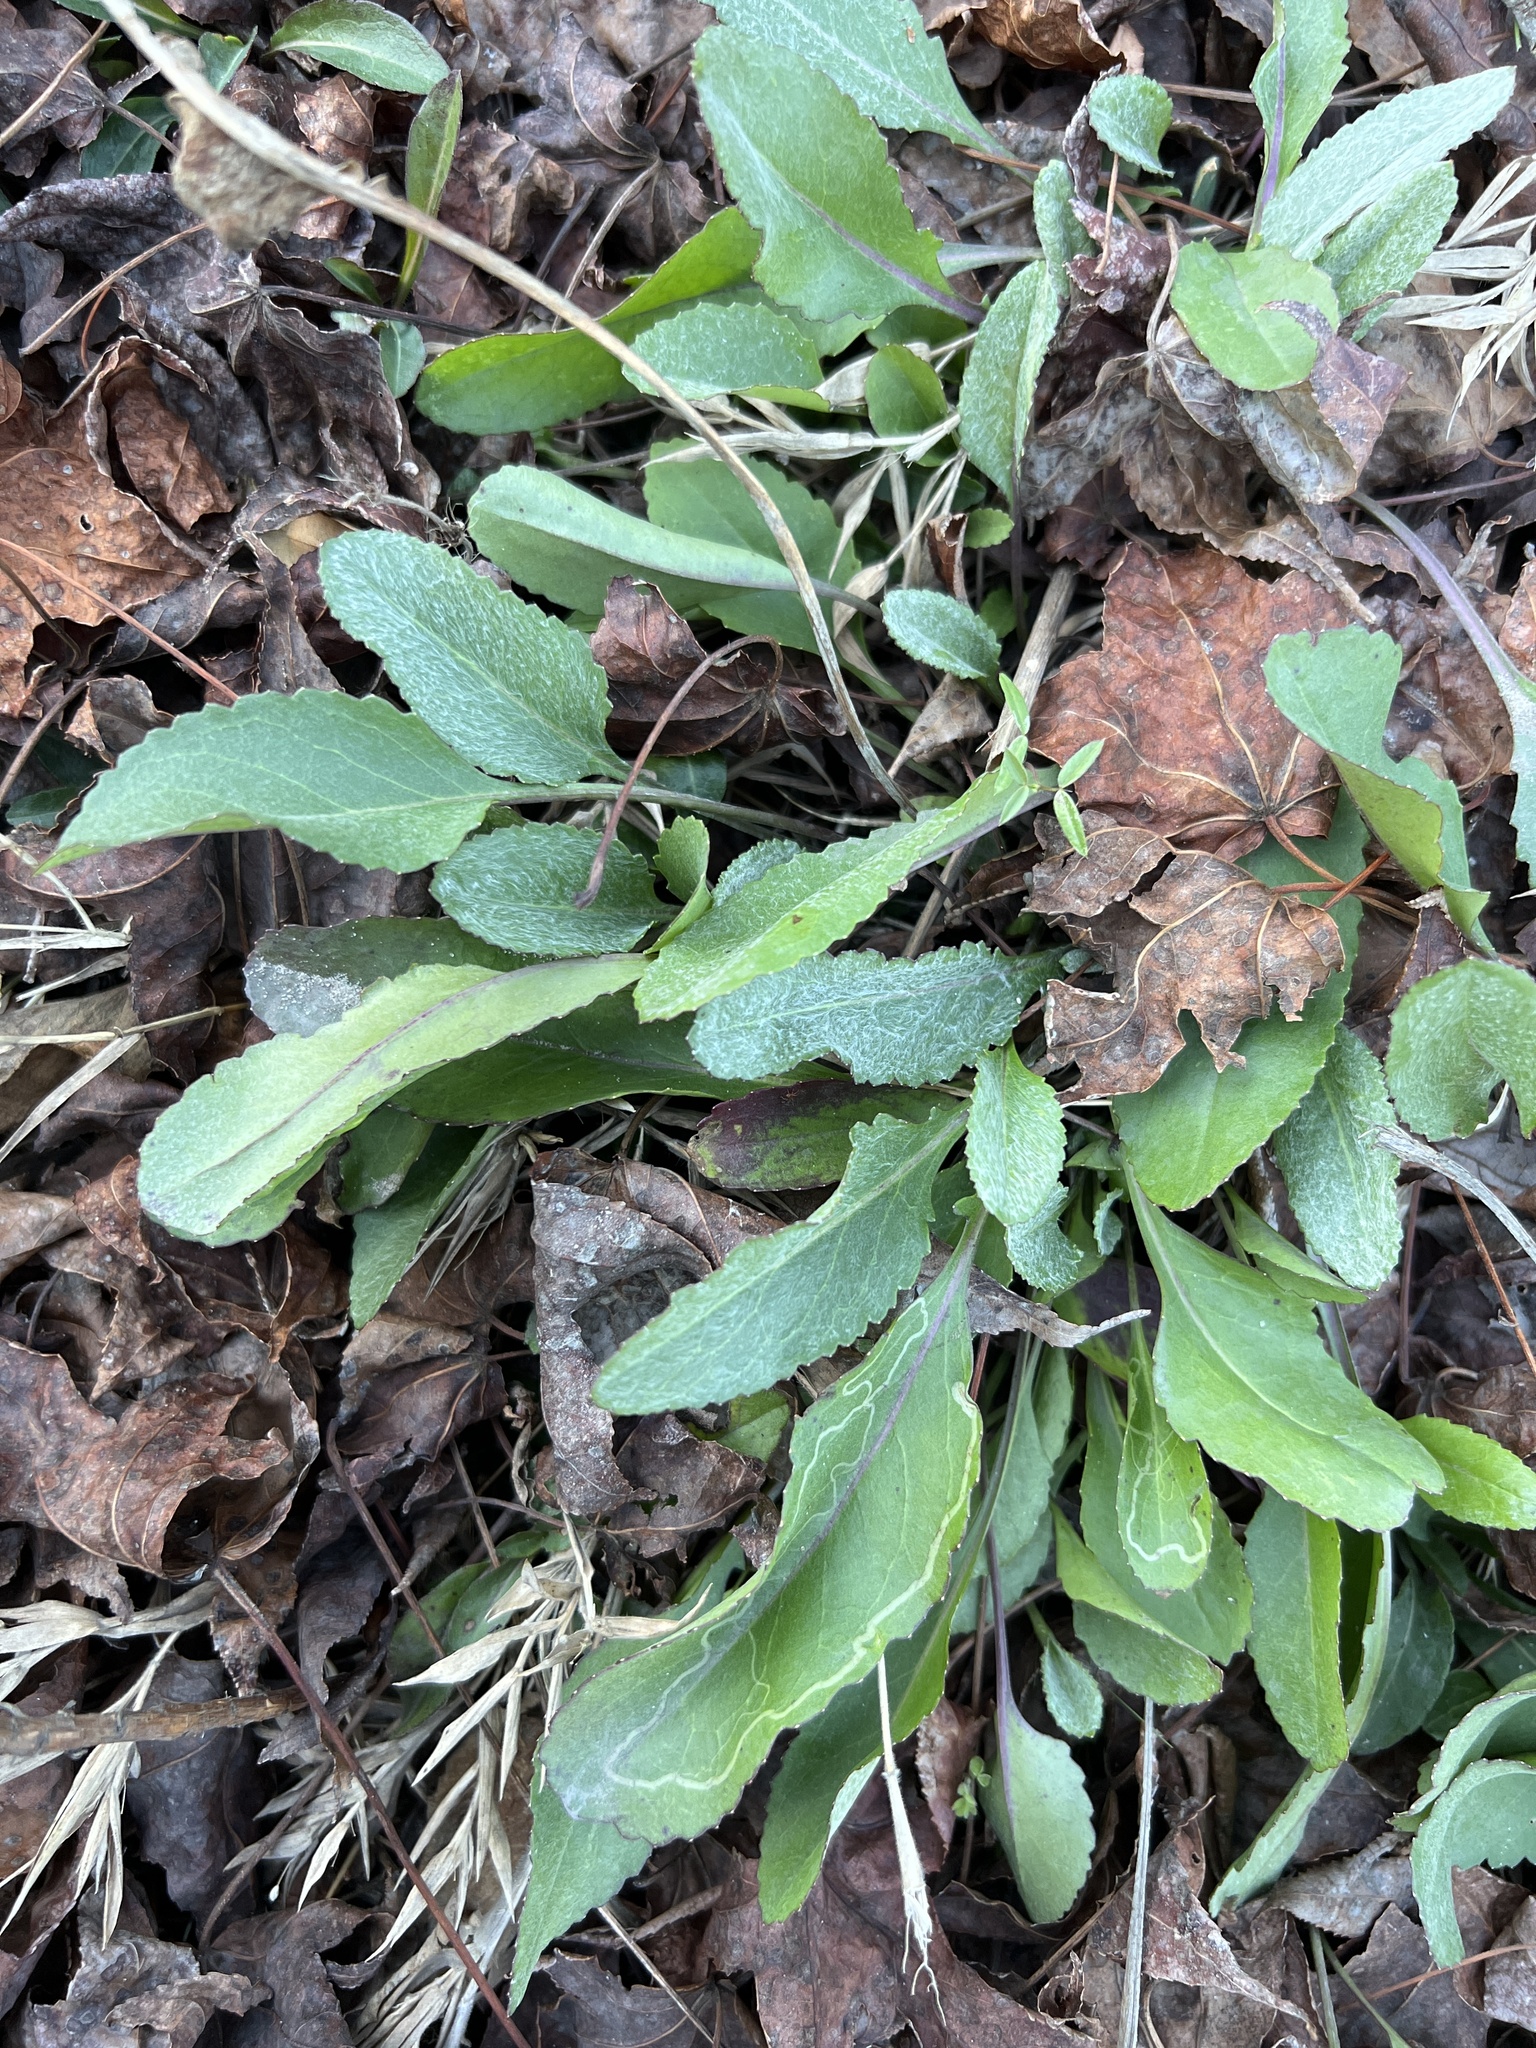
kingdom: Plantae
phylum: Tracheophyta
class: Magnoliopsida
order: Asterales
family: Asteraceae
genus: Packera
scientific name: Packera dubia
